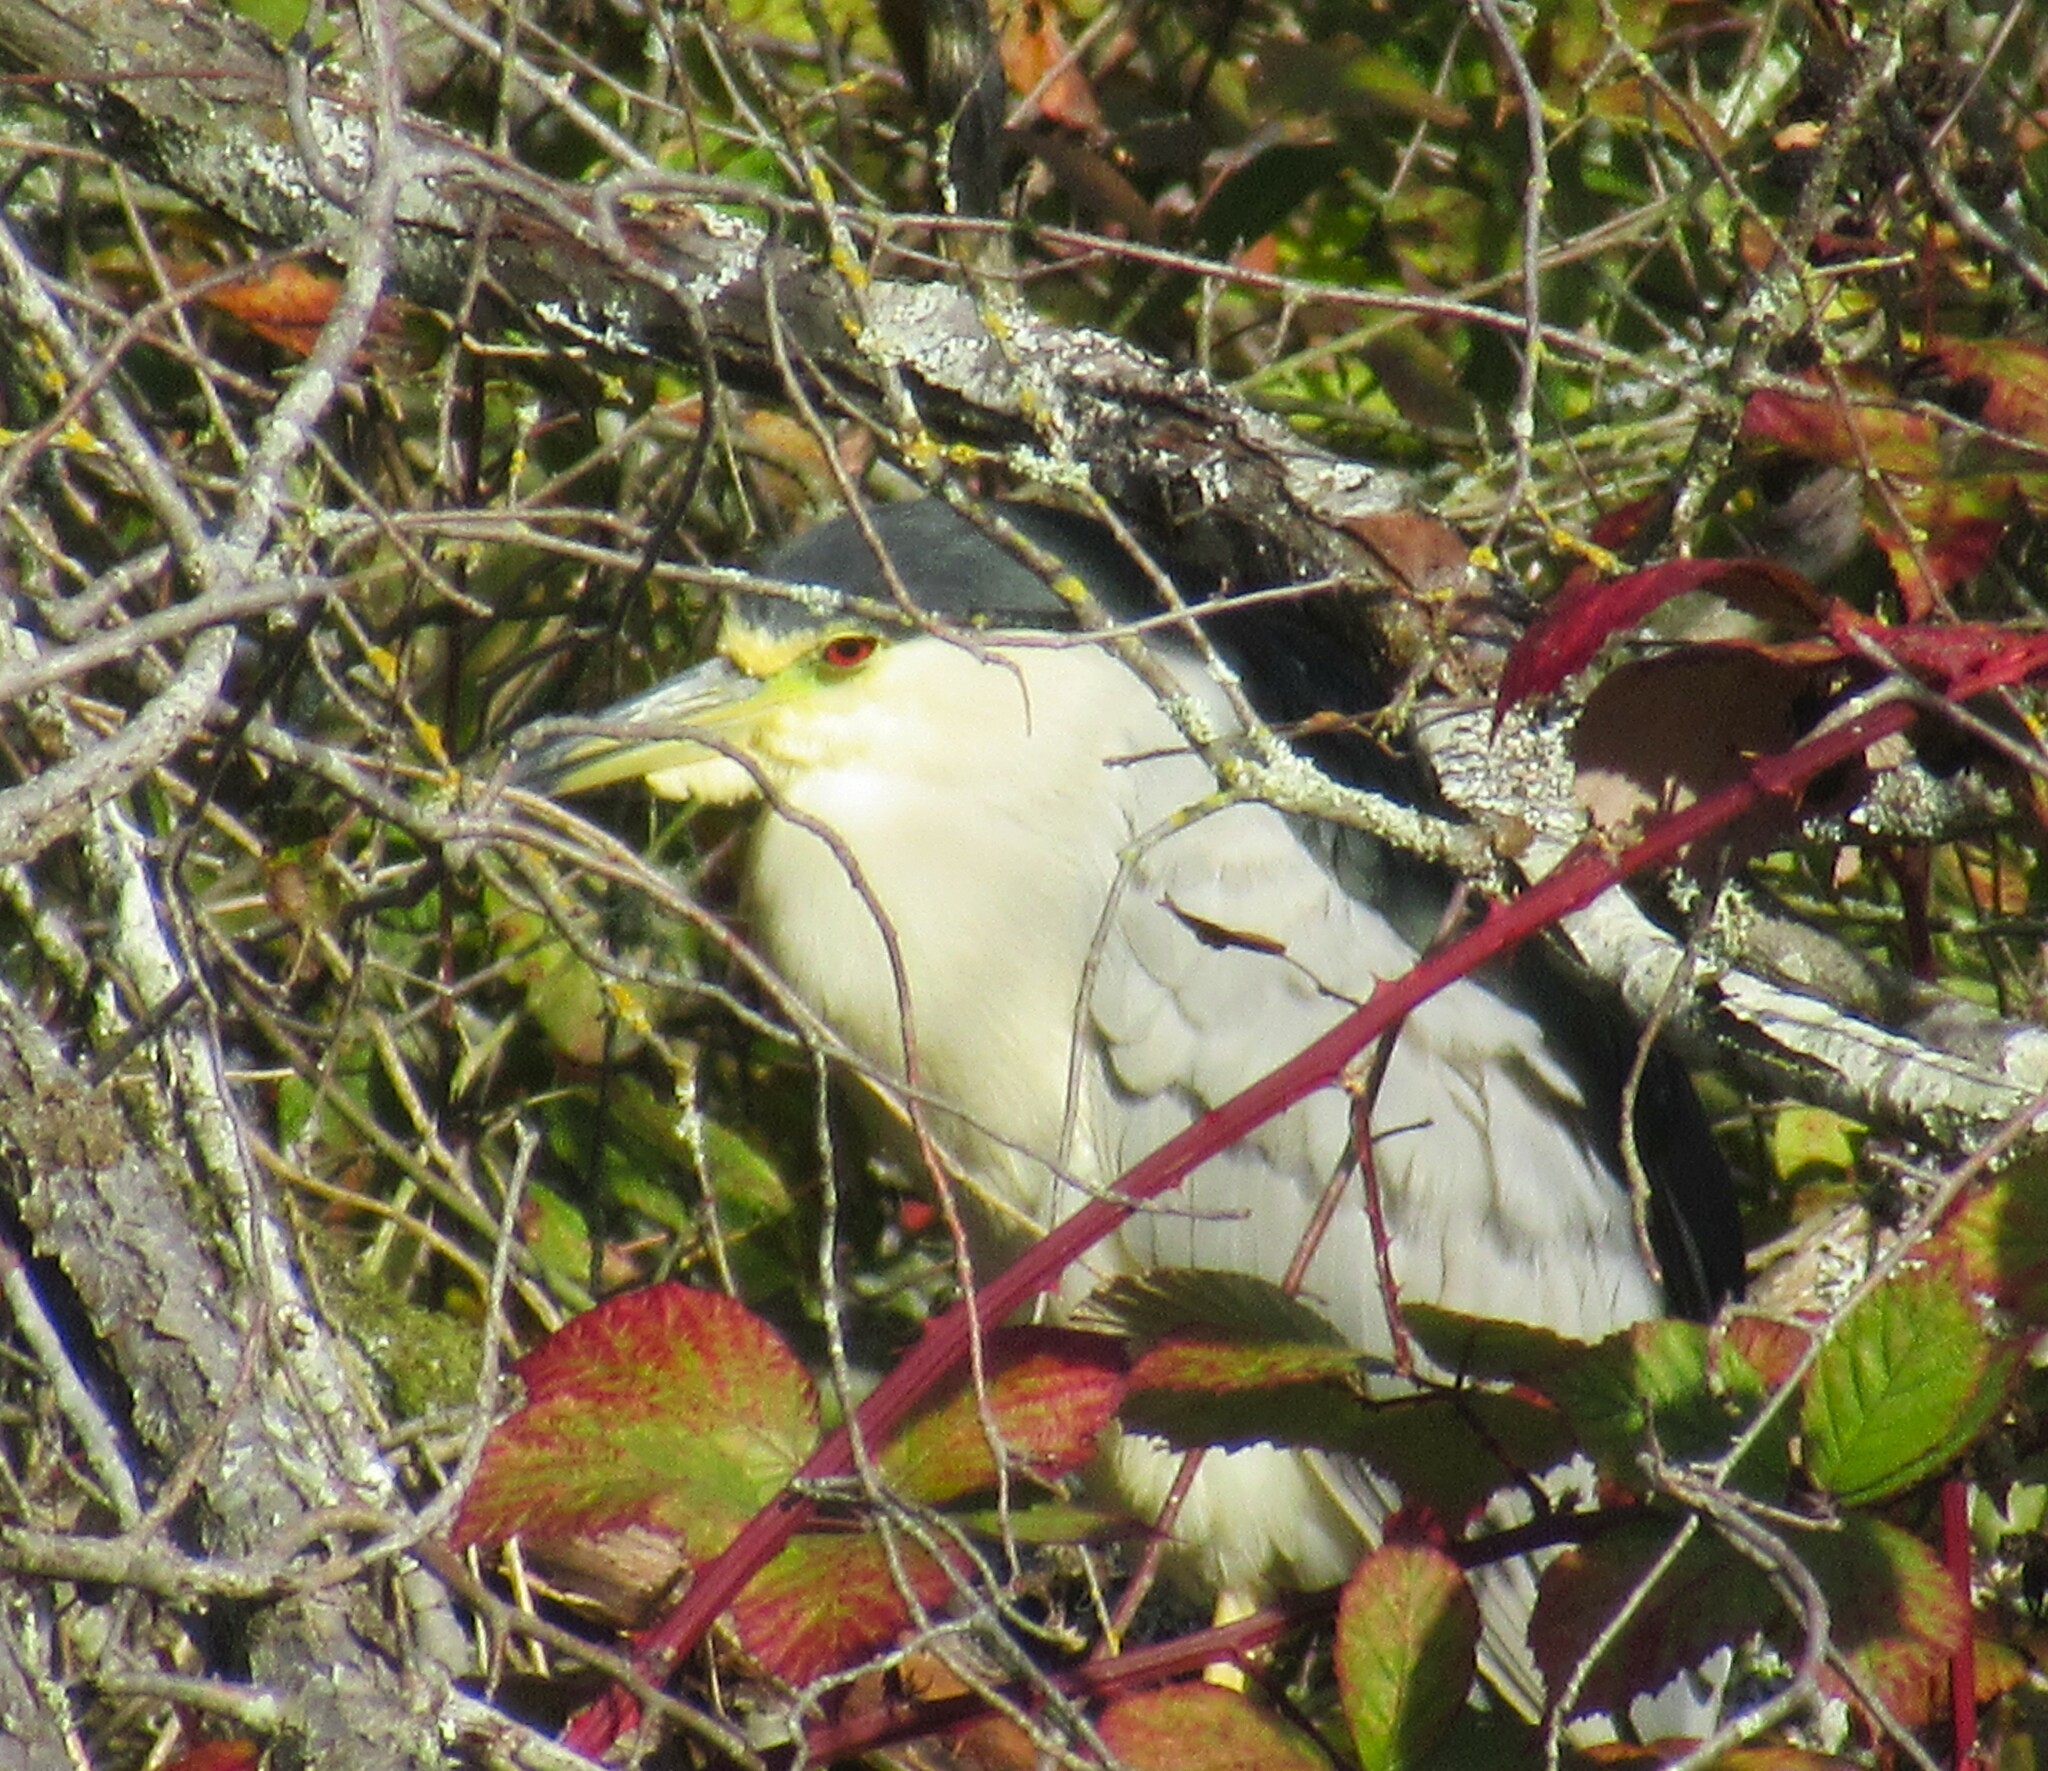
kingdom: Animalia
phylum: Chordata
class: Aves
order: Pelecaniformes
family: Ardeidae
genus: Nycticorax
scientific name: Nycticorax nycticorax
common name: Black-crowned night heron
